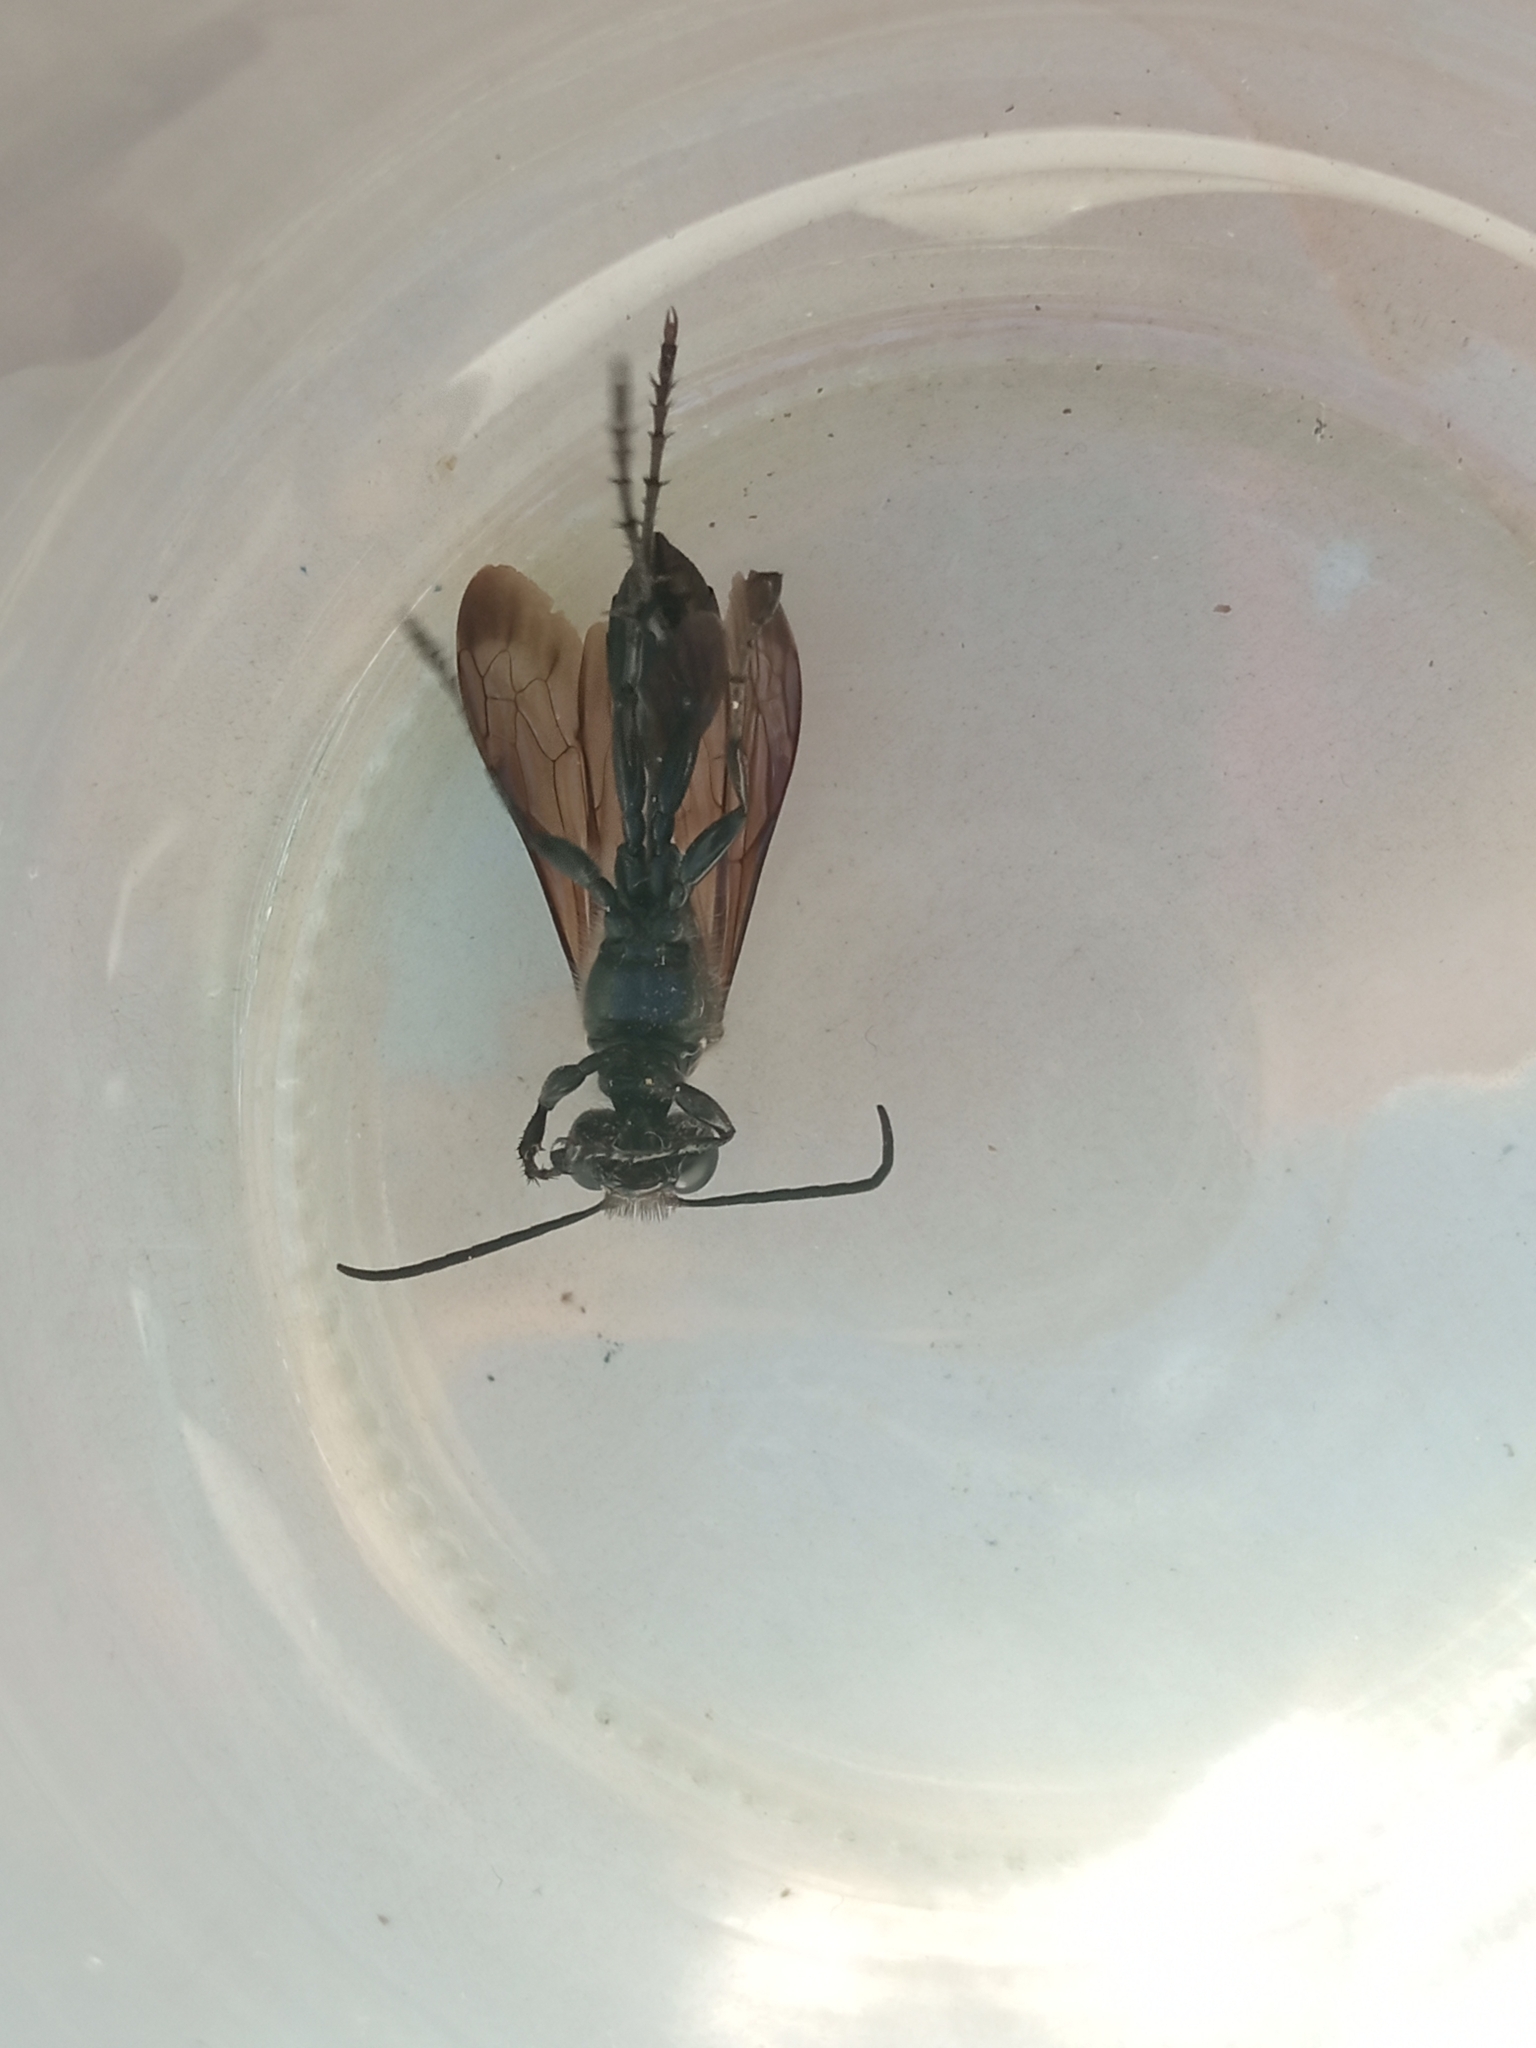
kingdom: Animalia
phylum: Arthropoda
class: Insecta
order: Hymenoptera
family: Sphecidae
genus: Isodontia
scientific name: Isodontia mexicana
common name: Mud dauber
